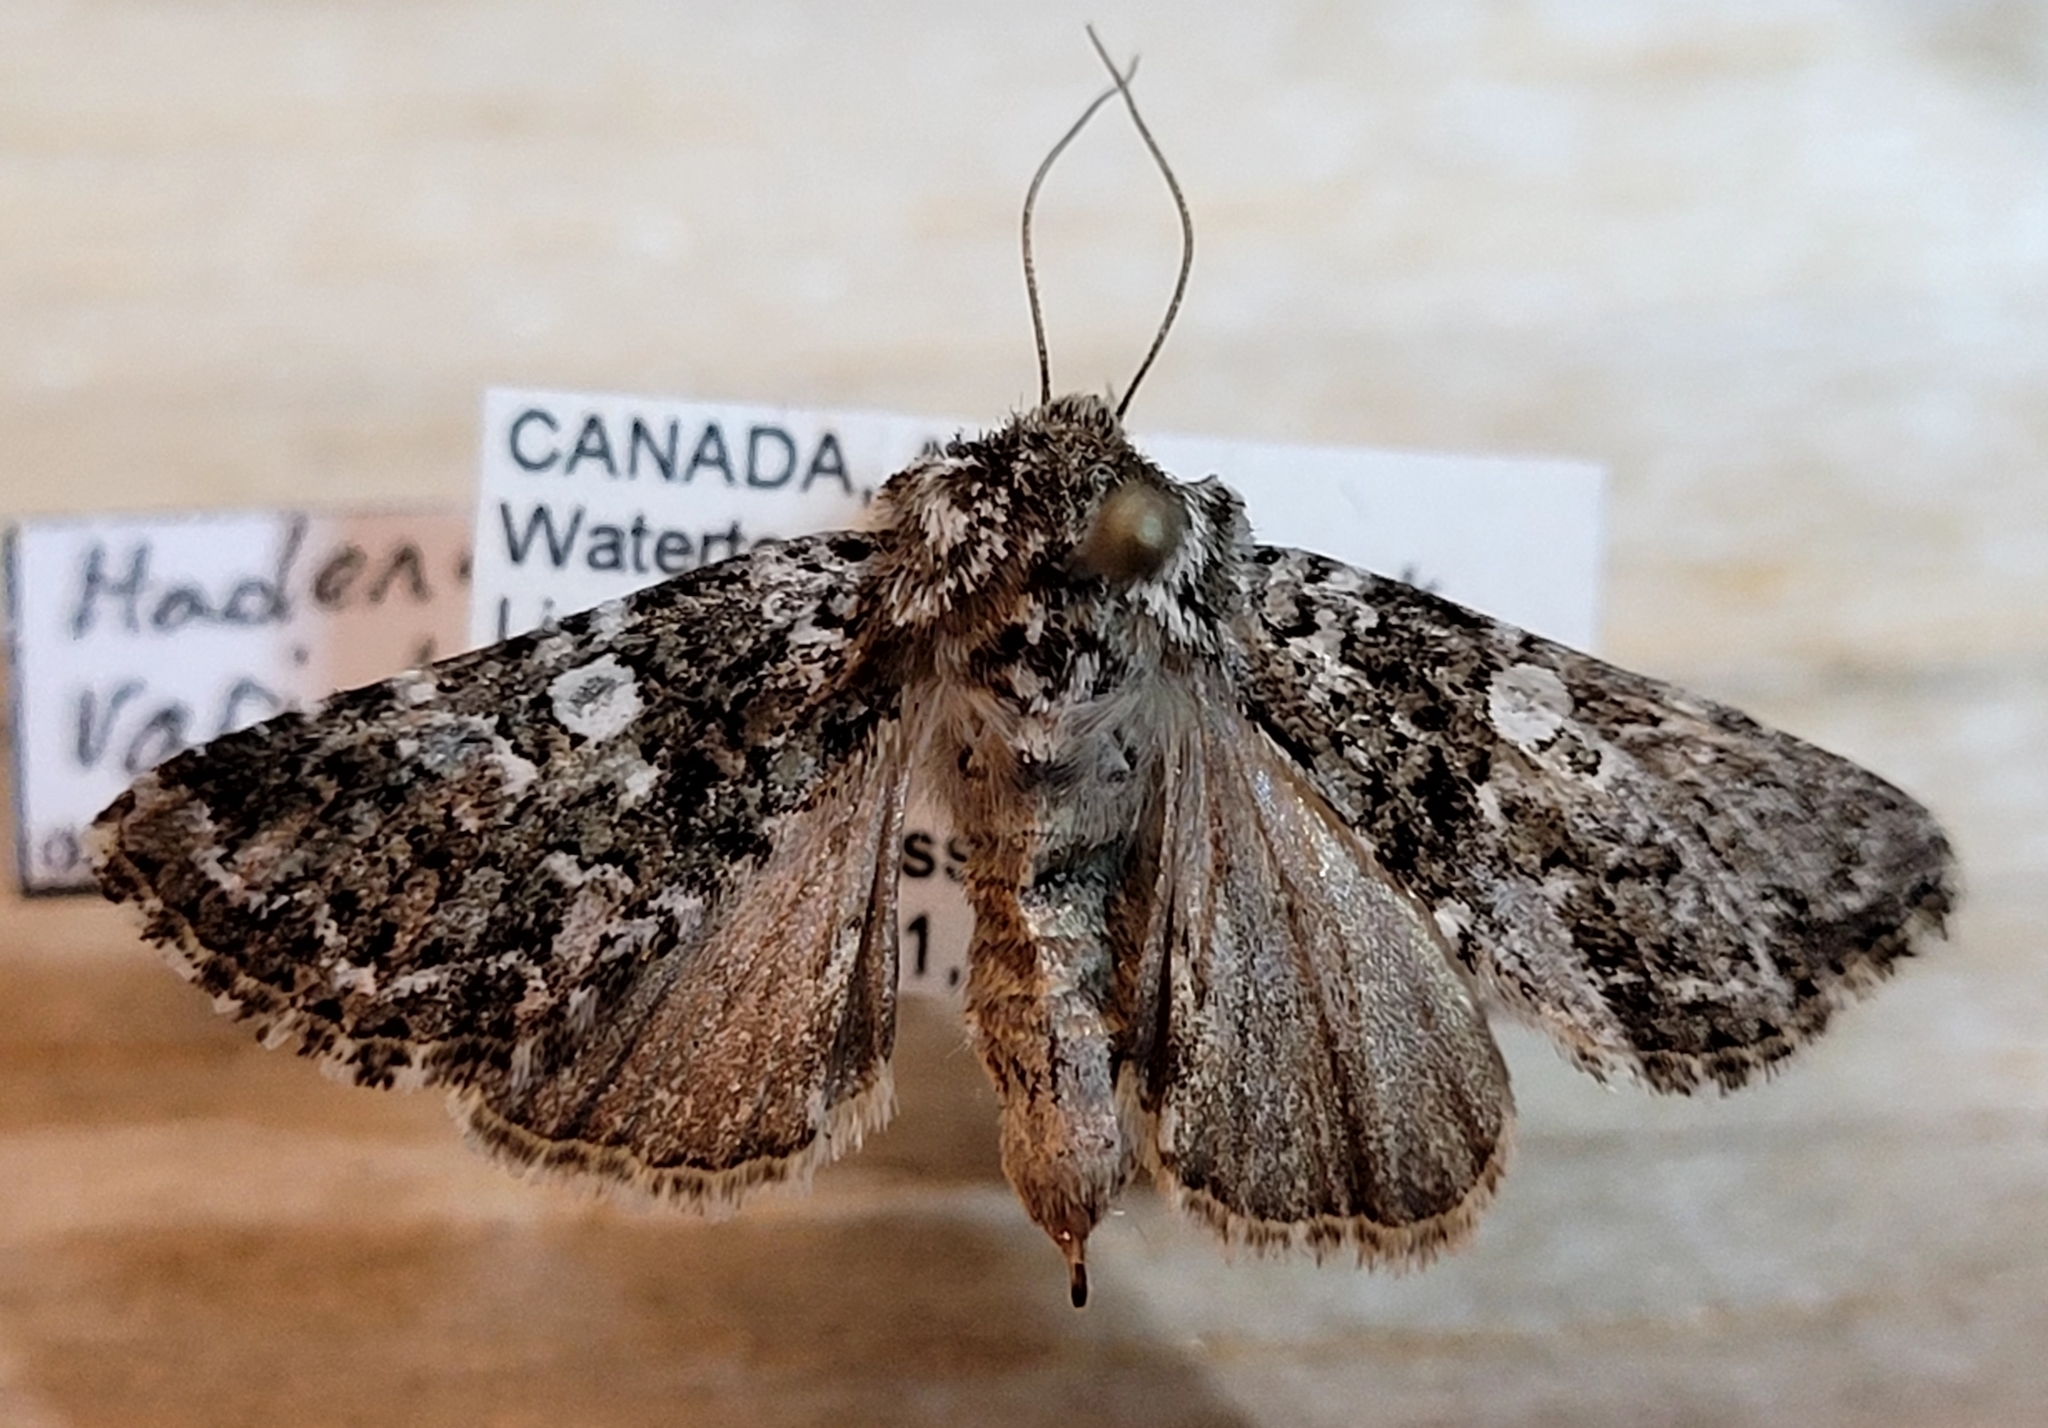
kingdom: Animalia
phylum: Arthropoda
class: Insecta
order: Lepidoptera
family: Noctuidae
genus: Hadena
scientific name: Hadena variolata
